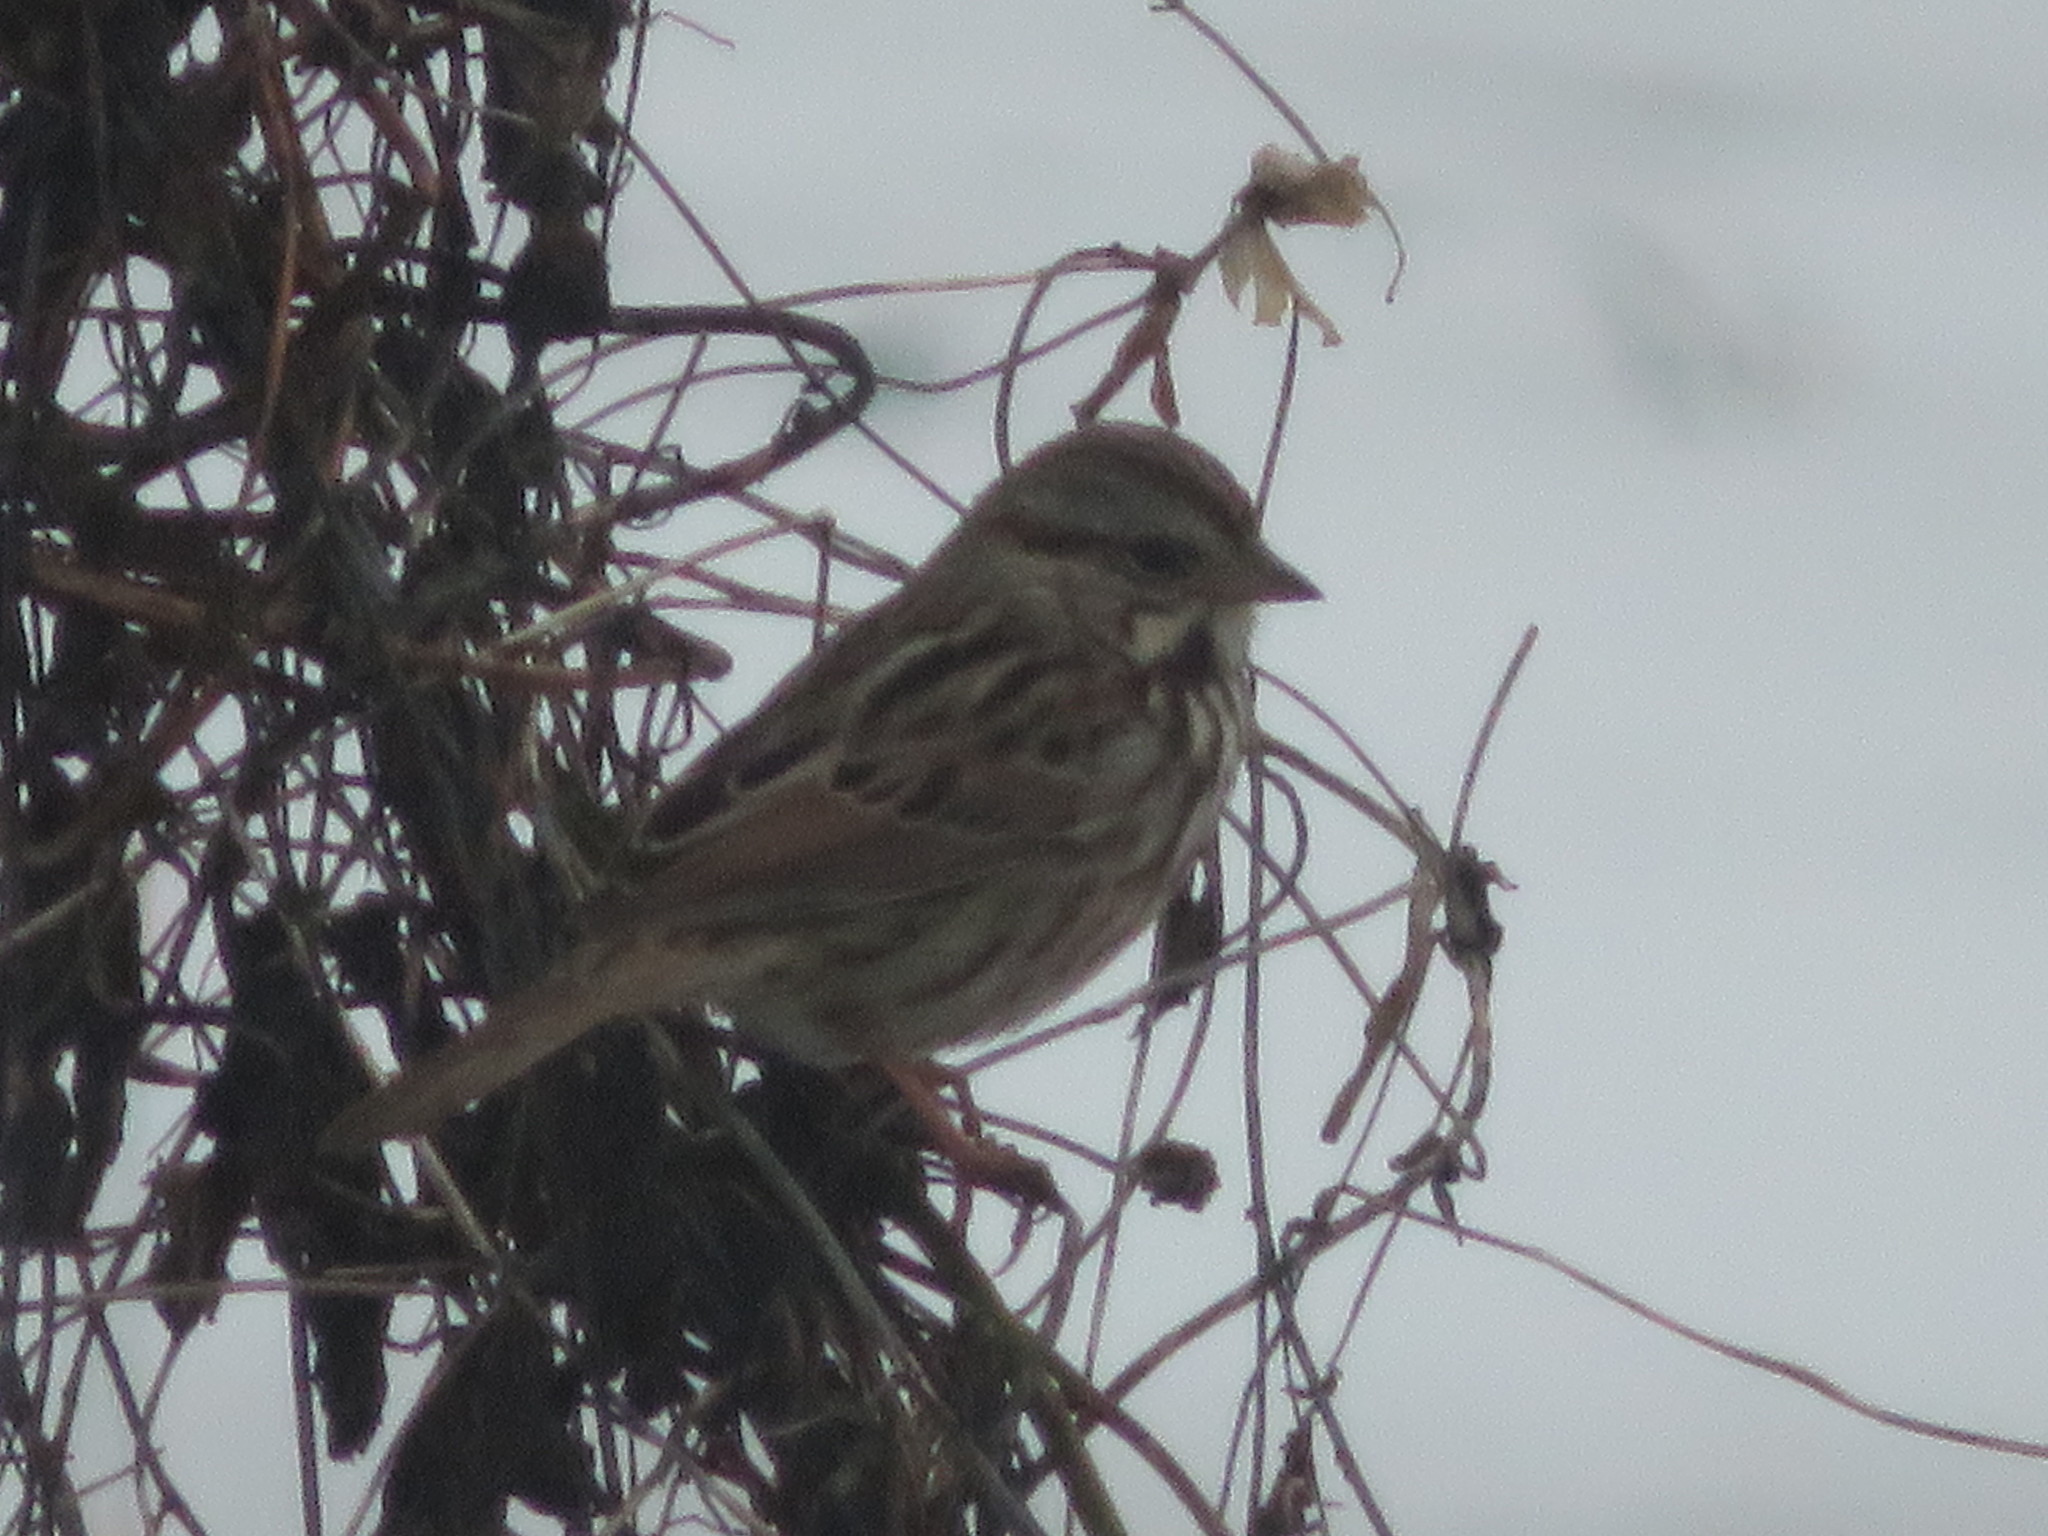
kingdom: Animalia
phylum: Chordata
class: Aves
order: Passeriformes
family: Passerellidae
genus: Melospiza
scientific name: Melospiza melodia
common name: Song sparrow
